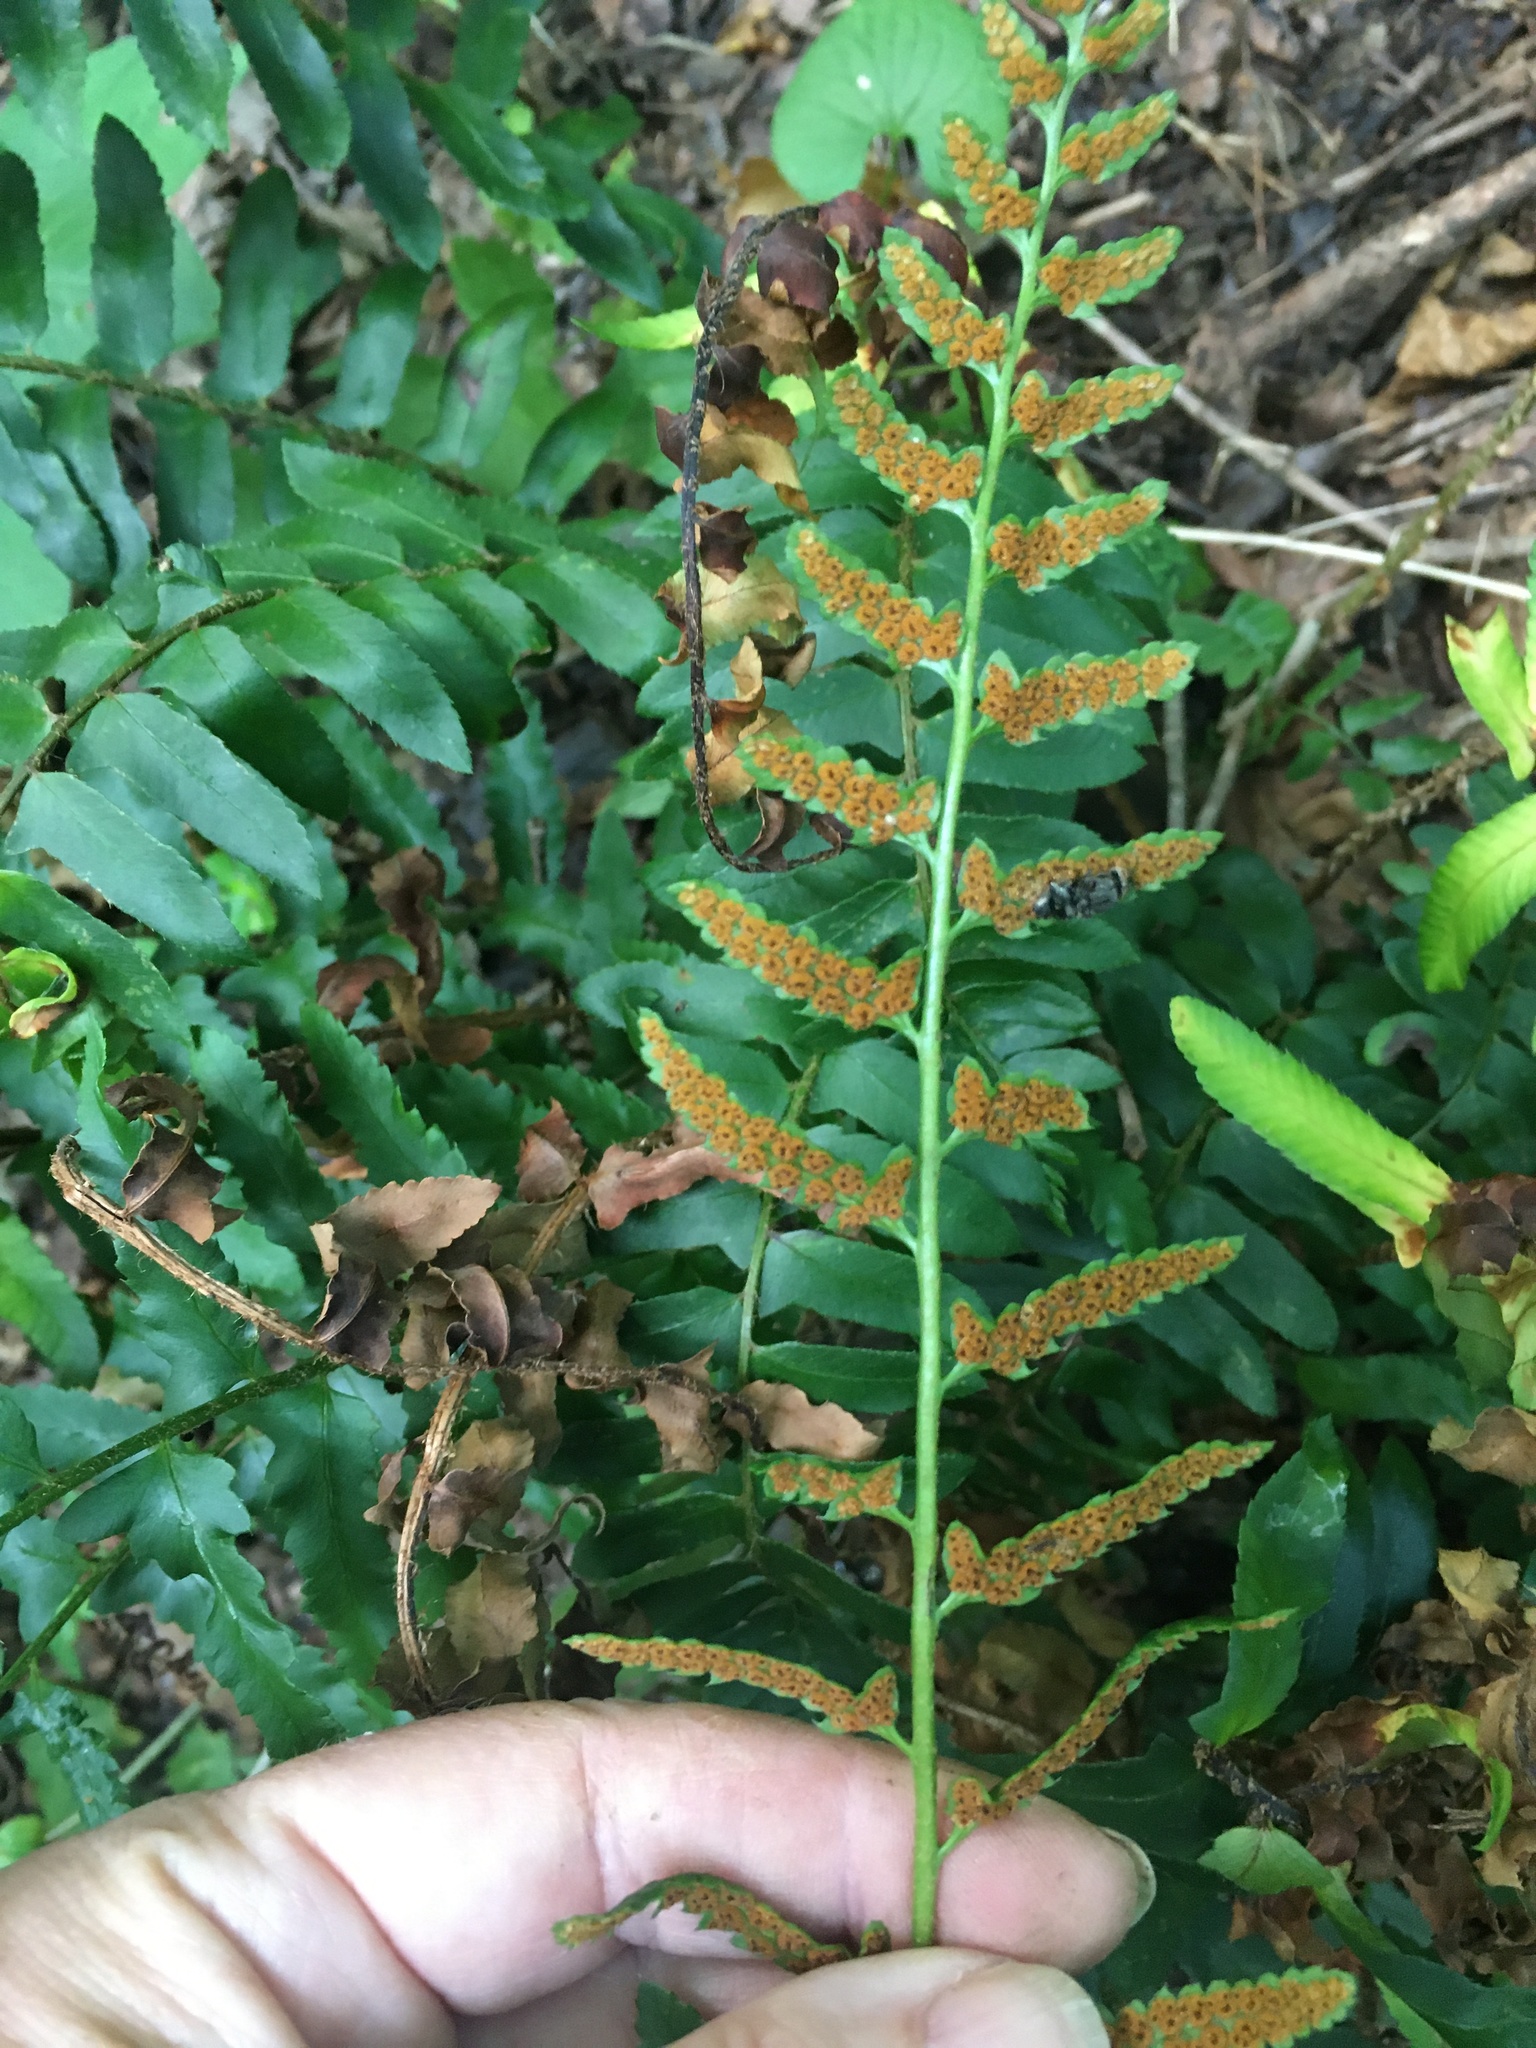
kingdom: Plantae
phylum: Tracheophyta
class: Polypodiopsida
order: Polypodiales
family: Dryopteridaceae
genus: Polystichum
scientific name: Polystichum acrostichoides
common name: Christmas fern
